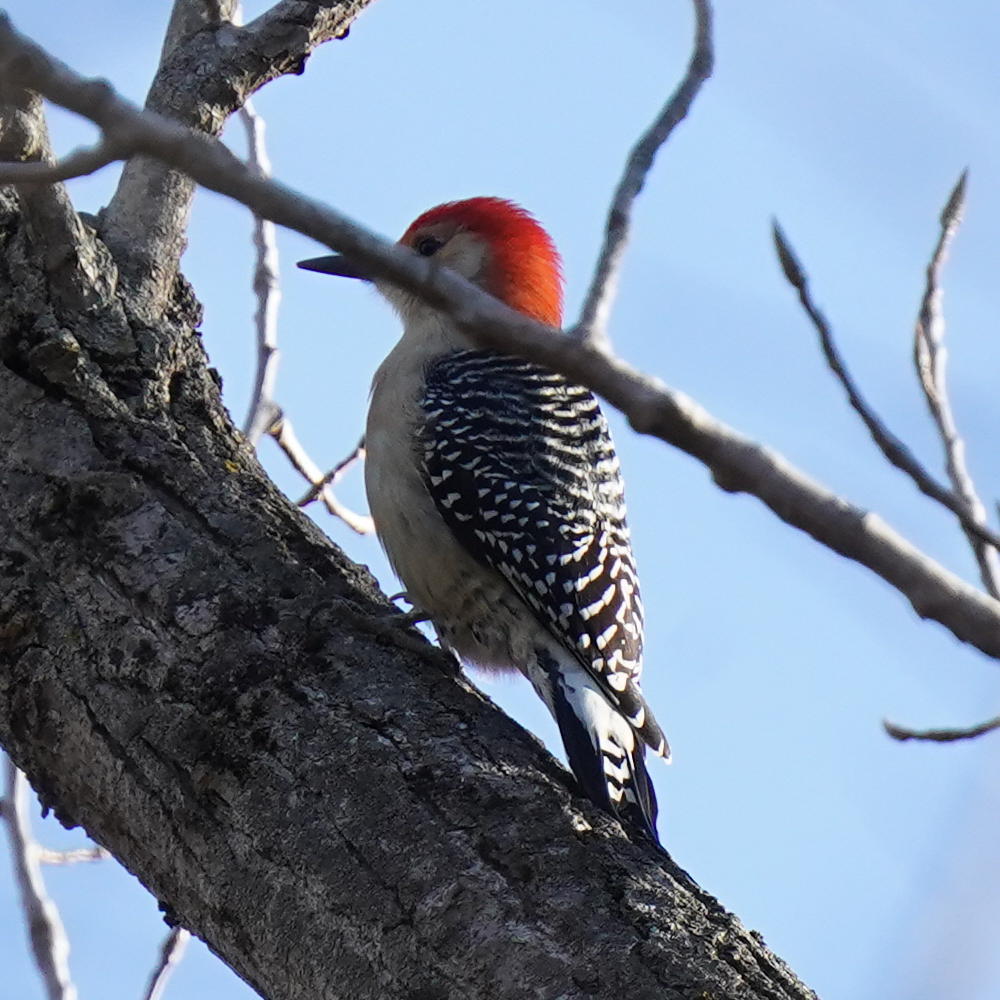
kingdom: Animalia
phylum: Chordata
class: Aves
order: Piciformes
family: Picidae
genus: Melanerpes
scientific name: Melanerpes carolinus
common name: Red-bellied woodpecker
